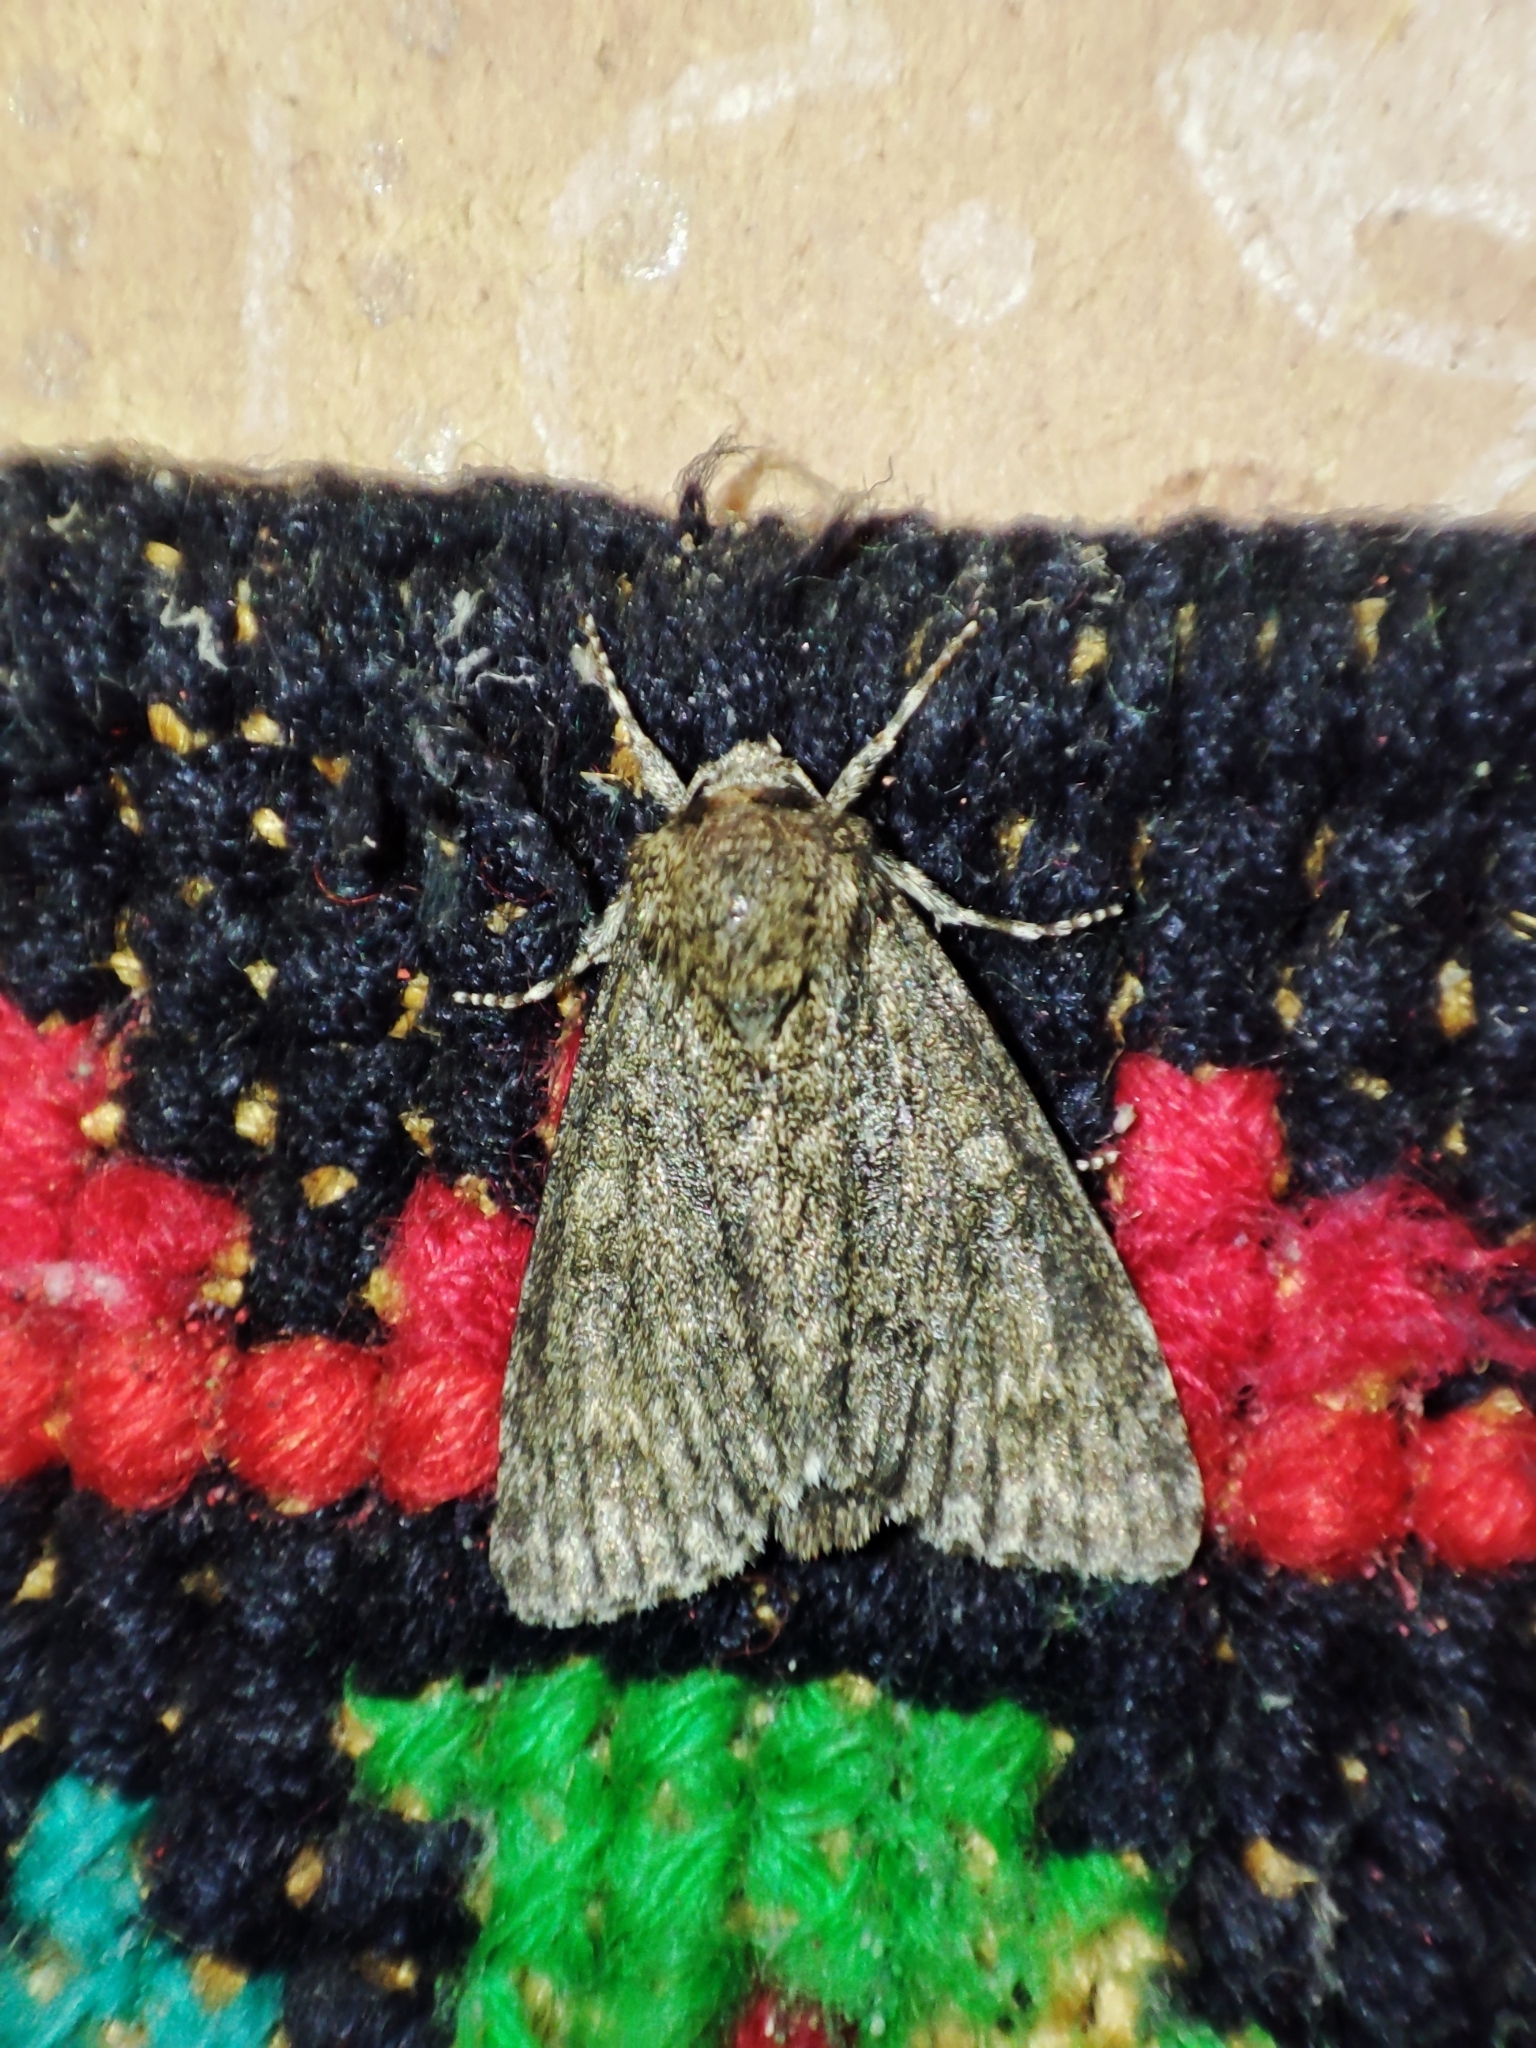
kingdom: Animalia
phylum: Arthropoda
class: Insecta
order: Lepidoptera
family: Noctuidae
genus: Acronicta
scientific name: Acronicta megacephala
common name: Poplar grey
